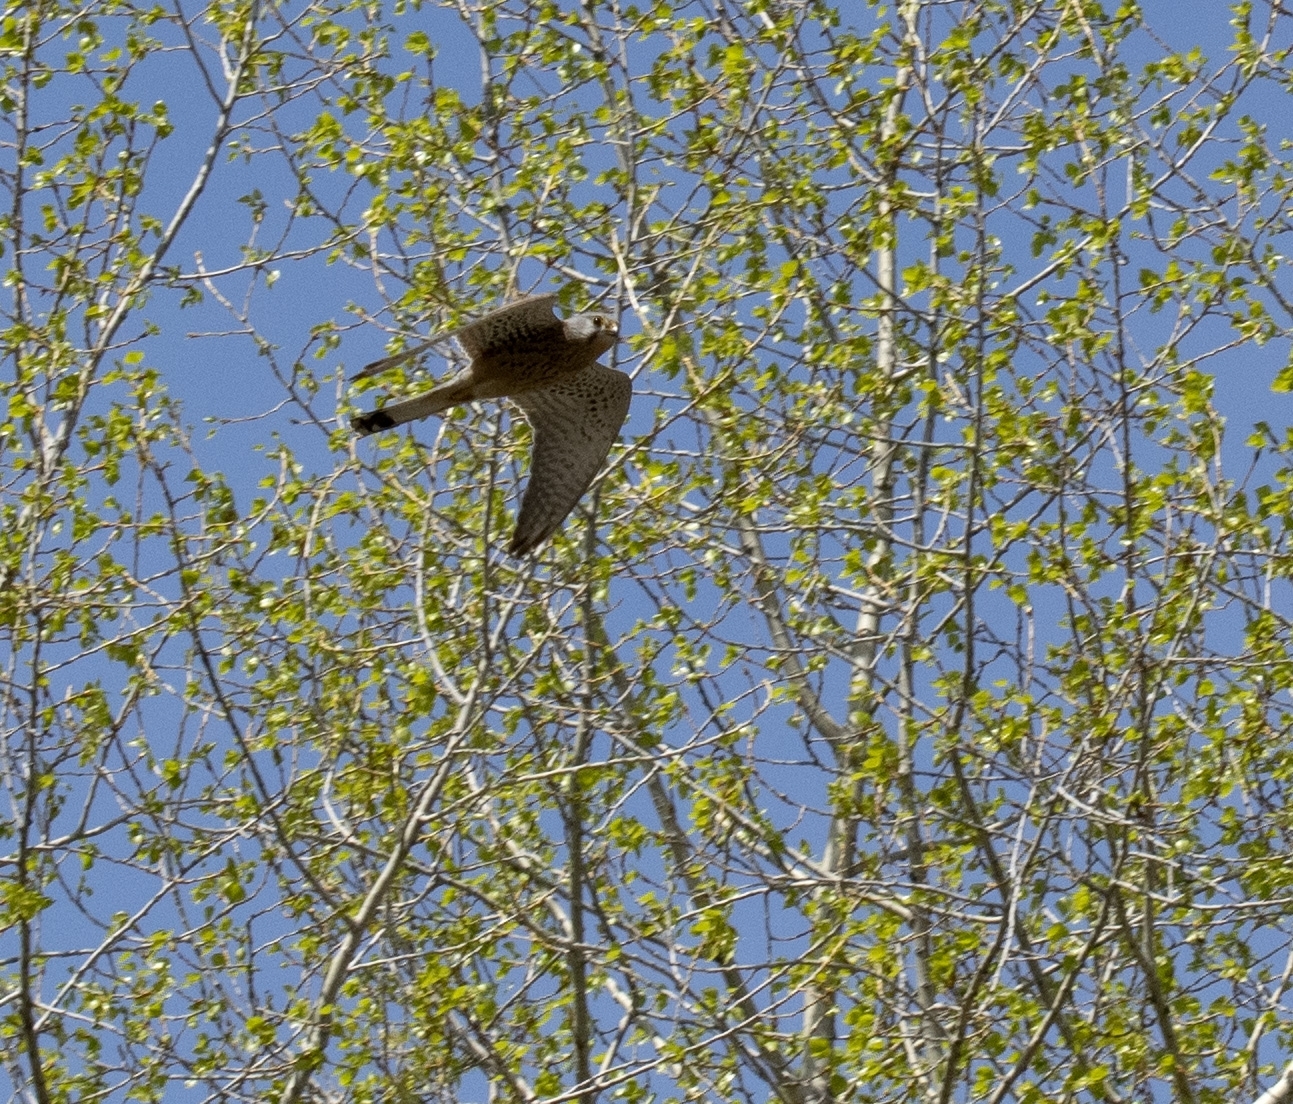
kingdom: Animalia
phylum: Chordata
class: Aves
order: Falconiformes
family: Falconidae
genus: Falco
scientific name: Falco tinnunculus
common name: Common kestrel
